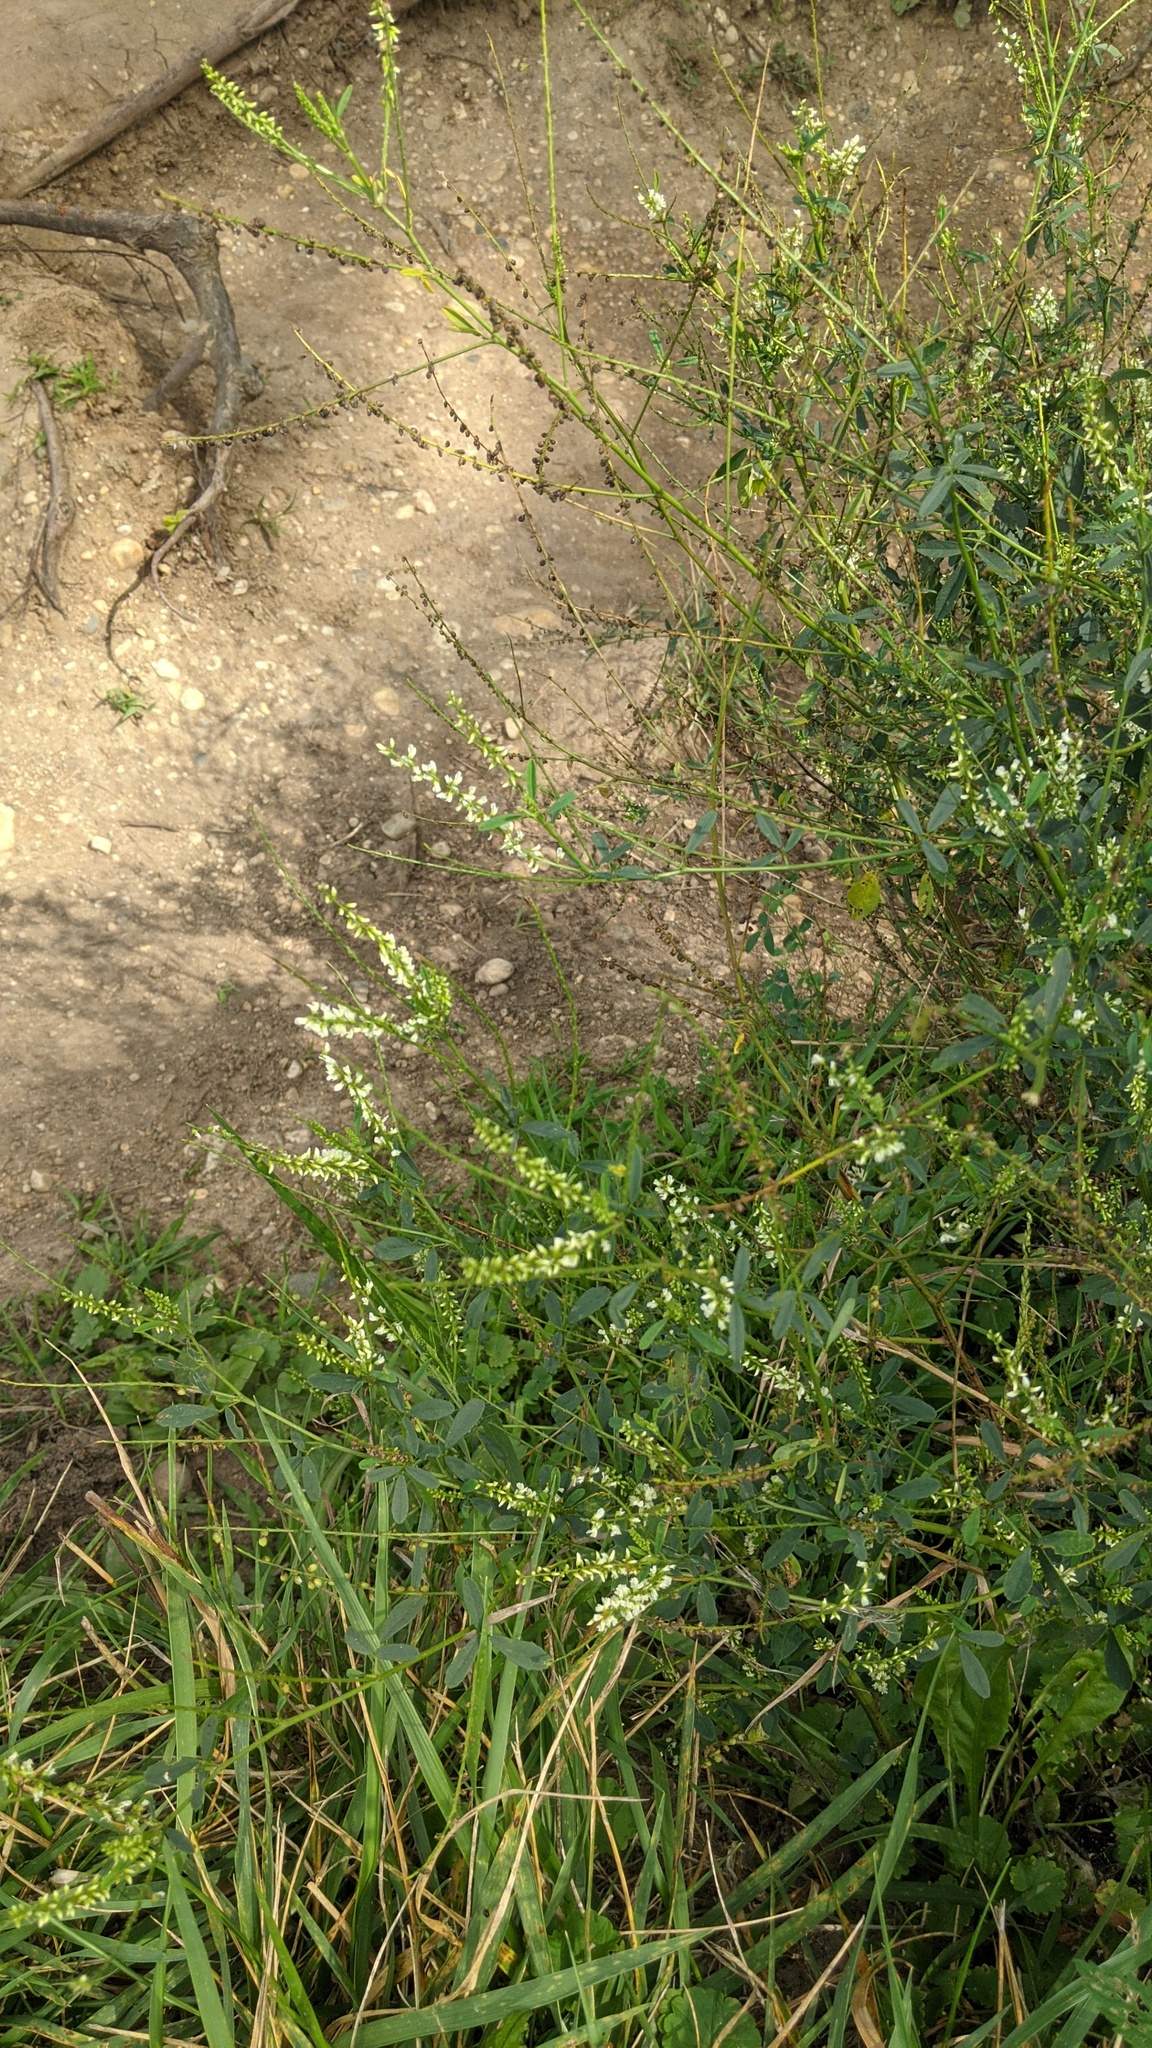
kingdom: Plantae
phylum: Tracheophyta
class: Magnoliopsida
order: Fabales
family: Fabaceae
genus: Melilotus
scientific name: Melilotus albus
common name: White melilot
